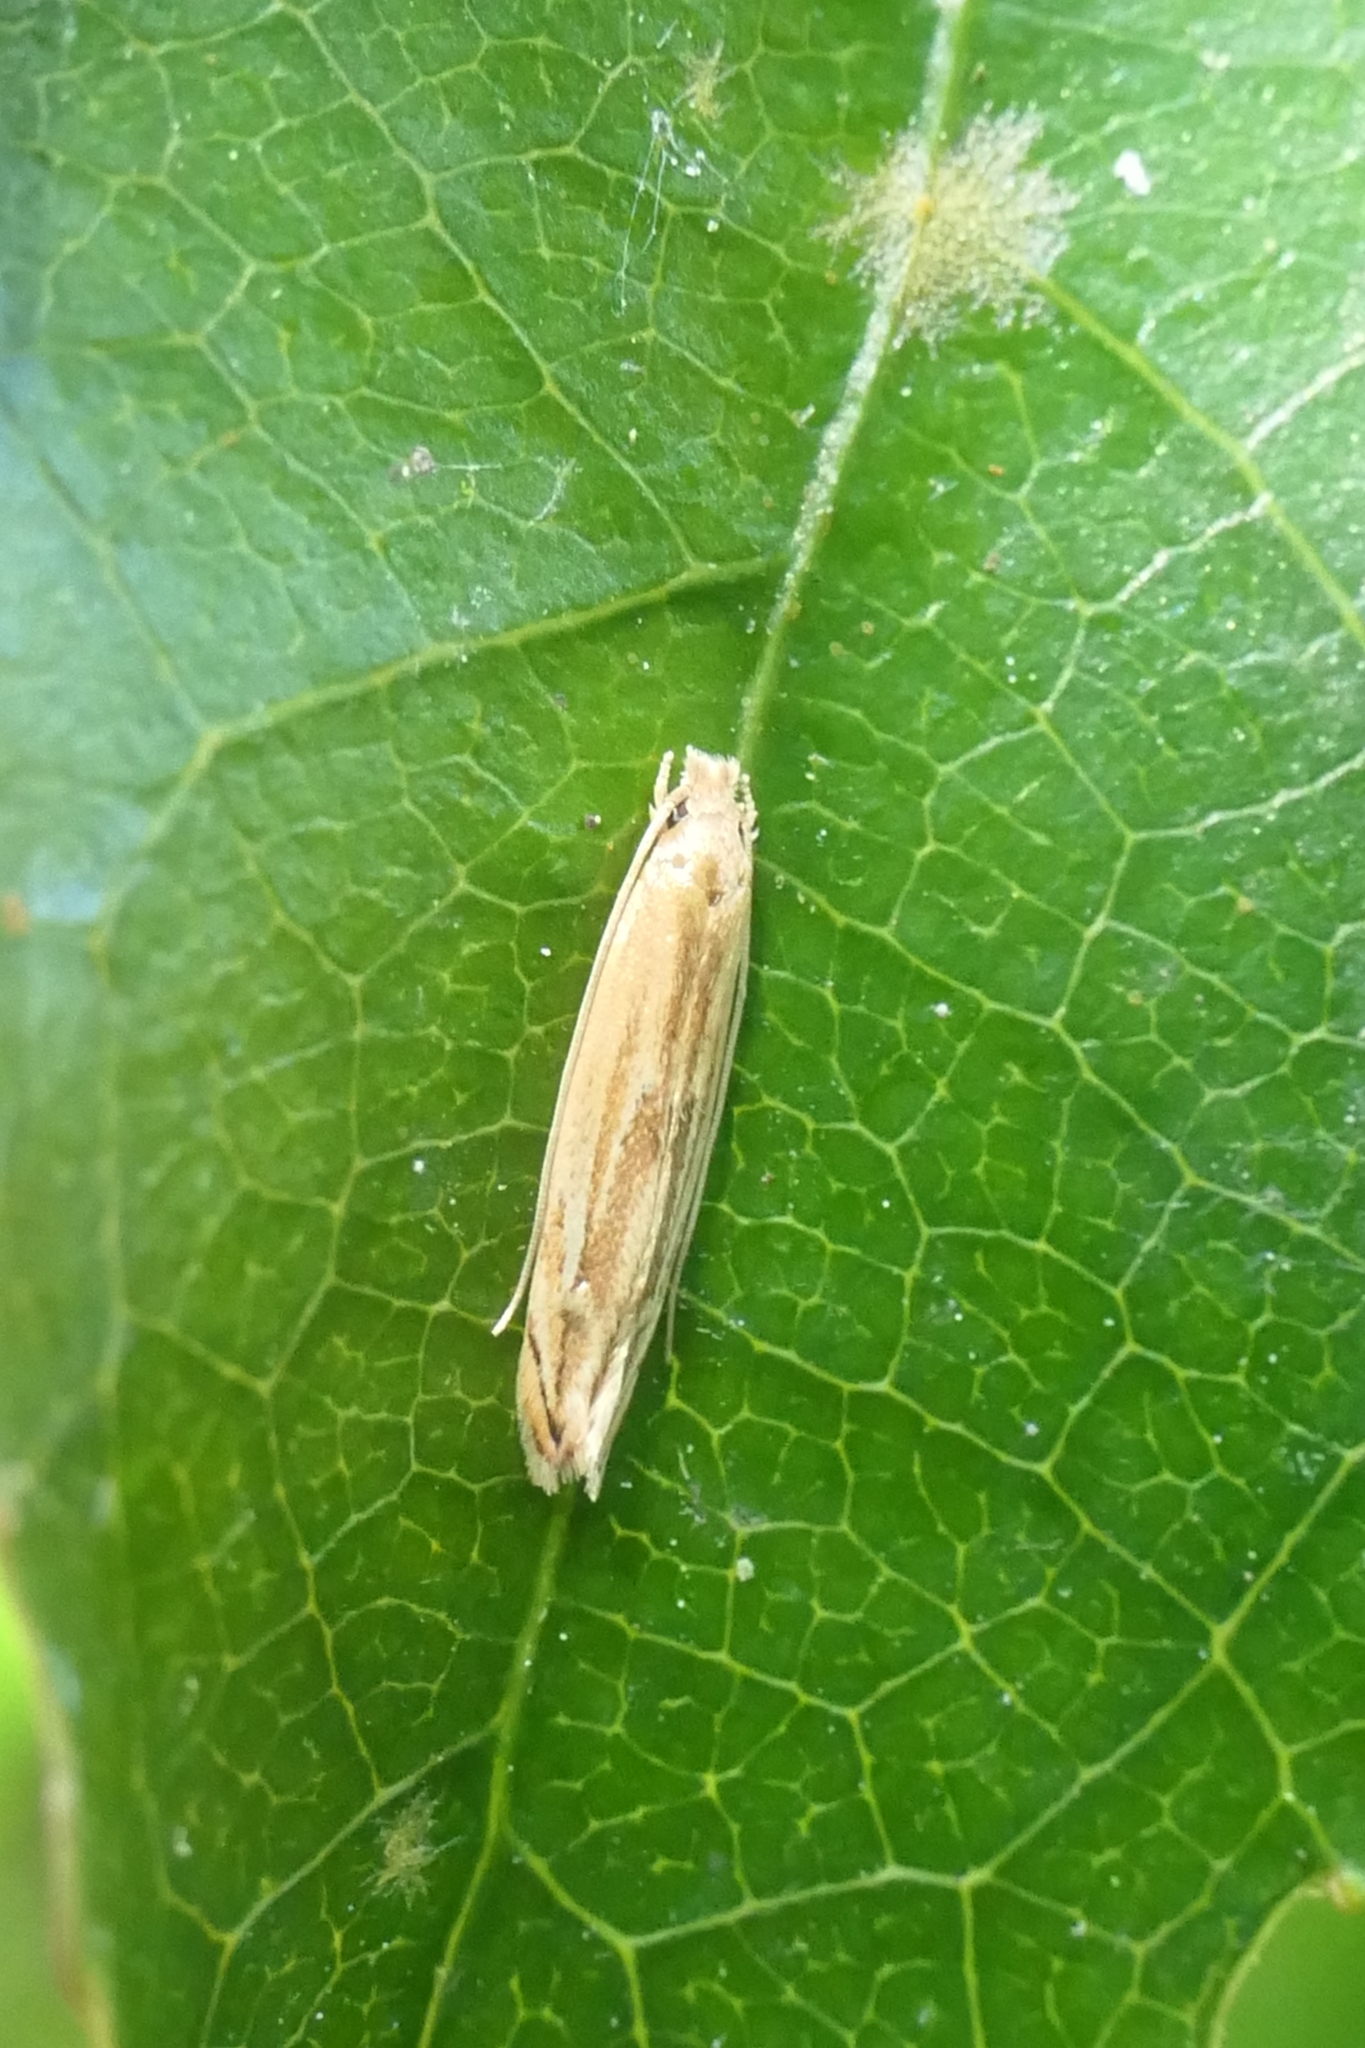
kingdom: Animalia
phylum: Arthropoda
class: Insecta
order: Lepidoptera
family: Tineidae
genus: Amphixystis
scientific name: Amphixystis hapsimacha
